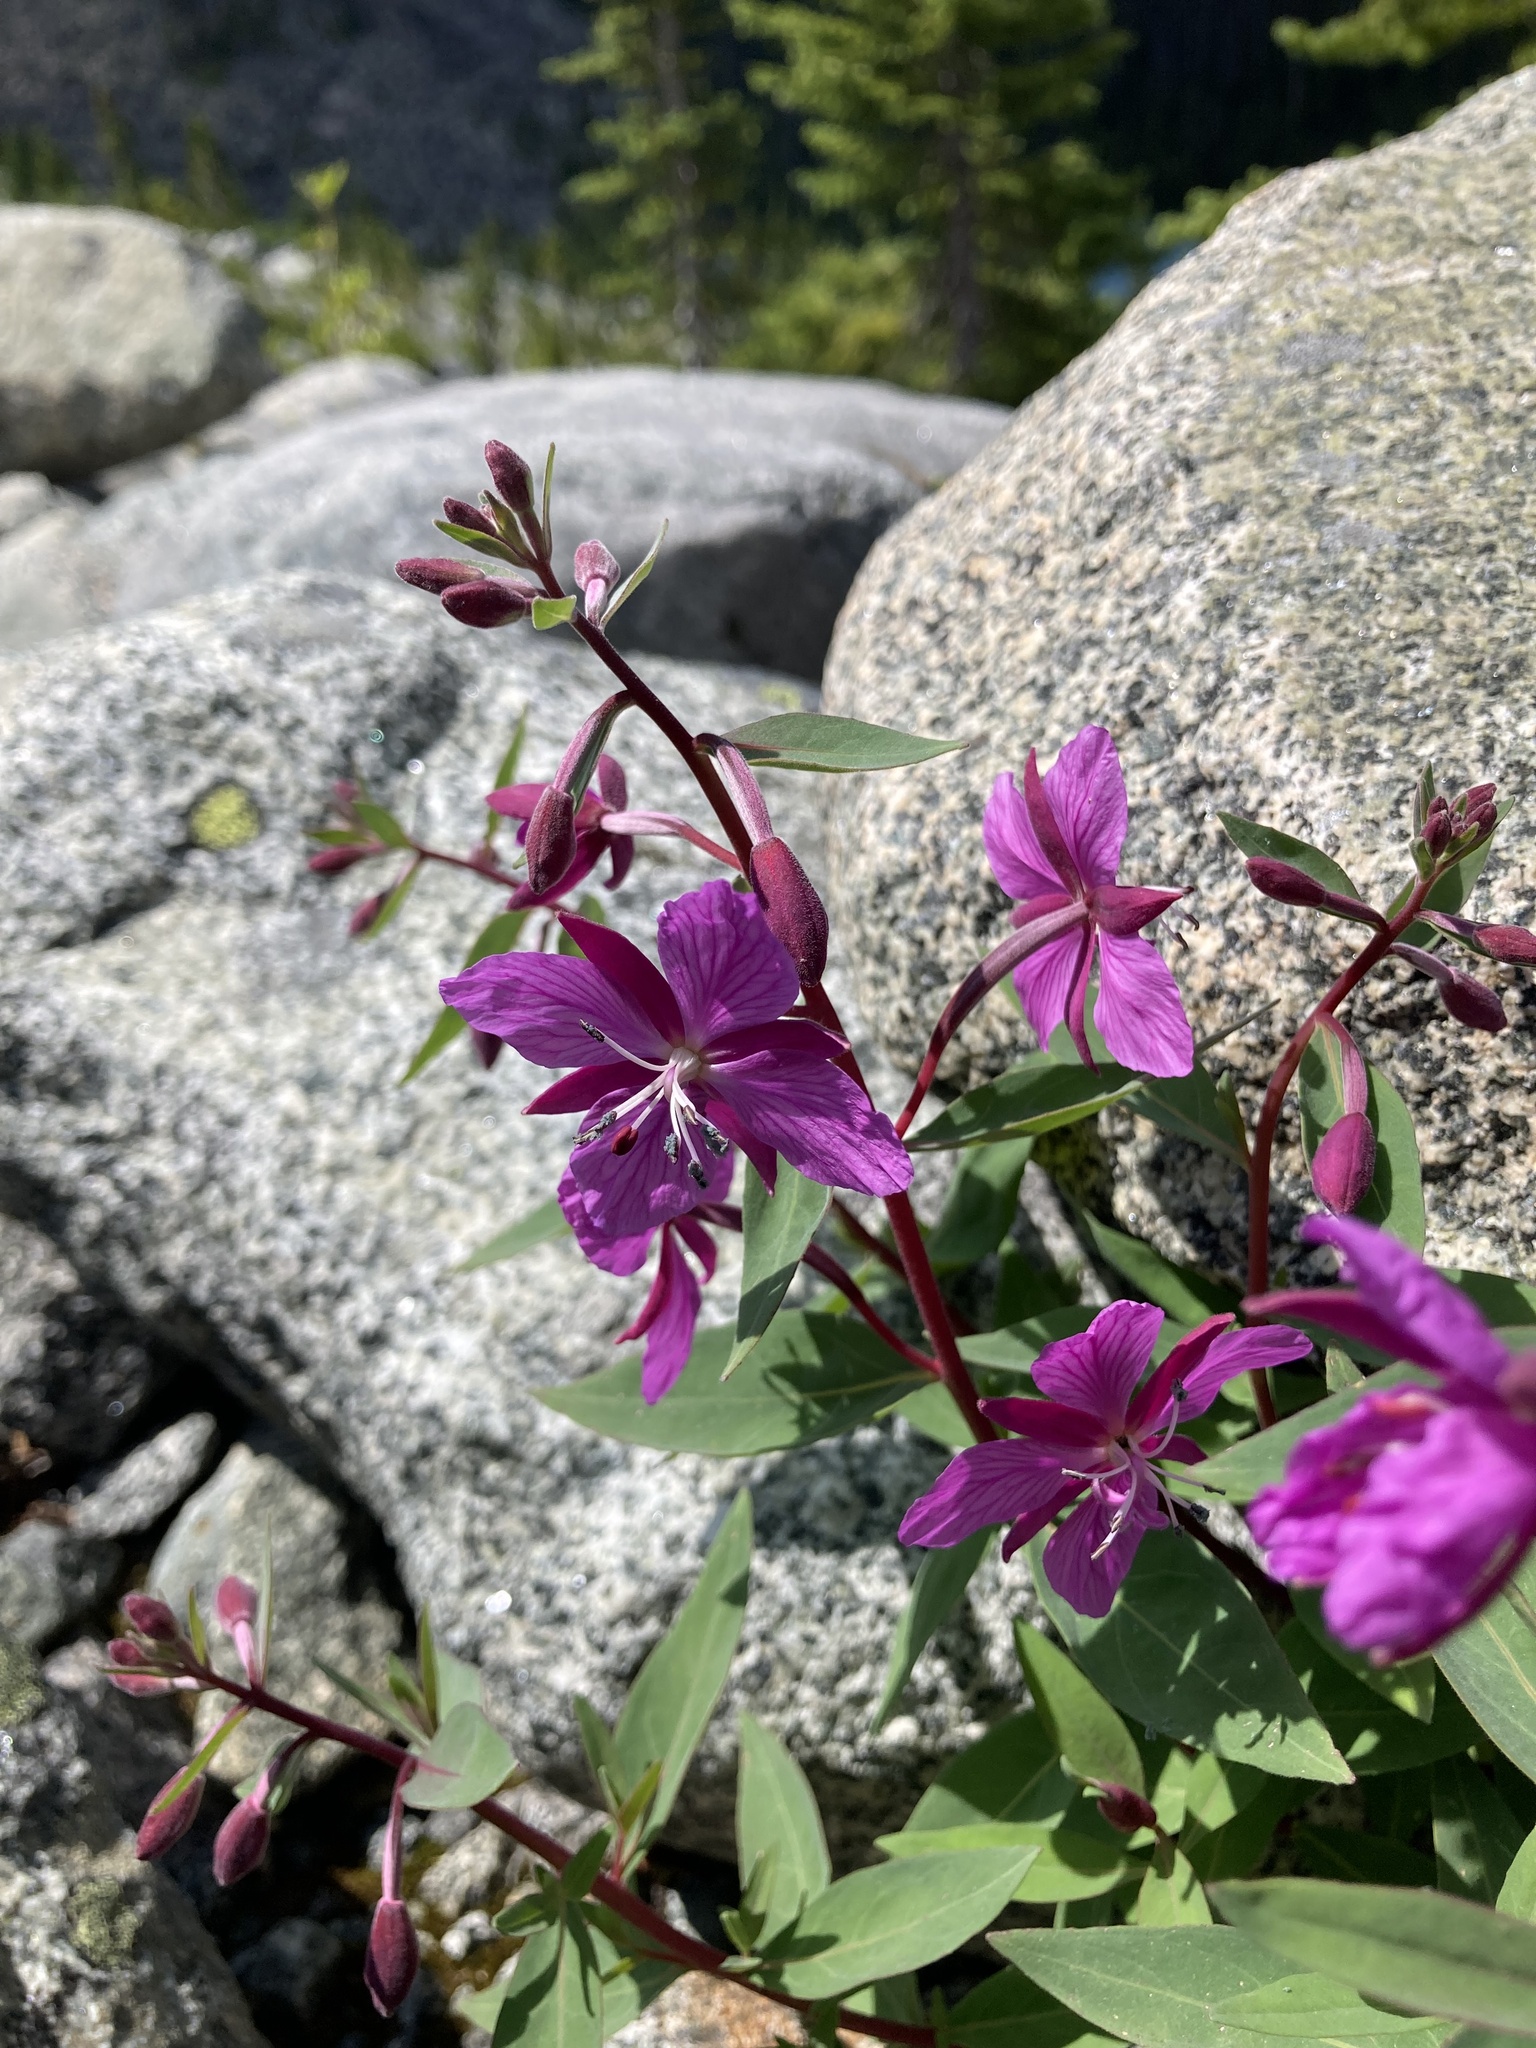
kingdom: Plantae
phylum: Tracheophyta
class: Magnoliopsida
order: Myrtales
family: Onagraceae
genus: Chamaenerion
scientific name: Chamaenerion latifolium
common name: Dwarf fireweed
